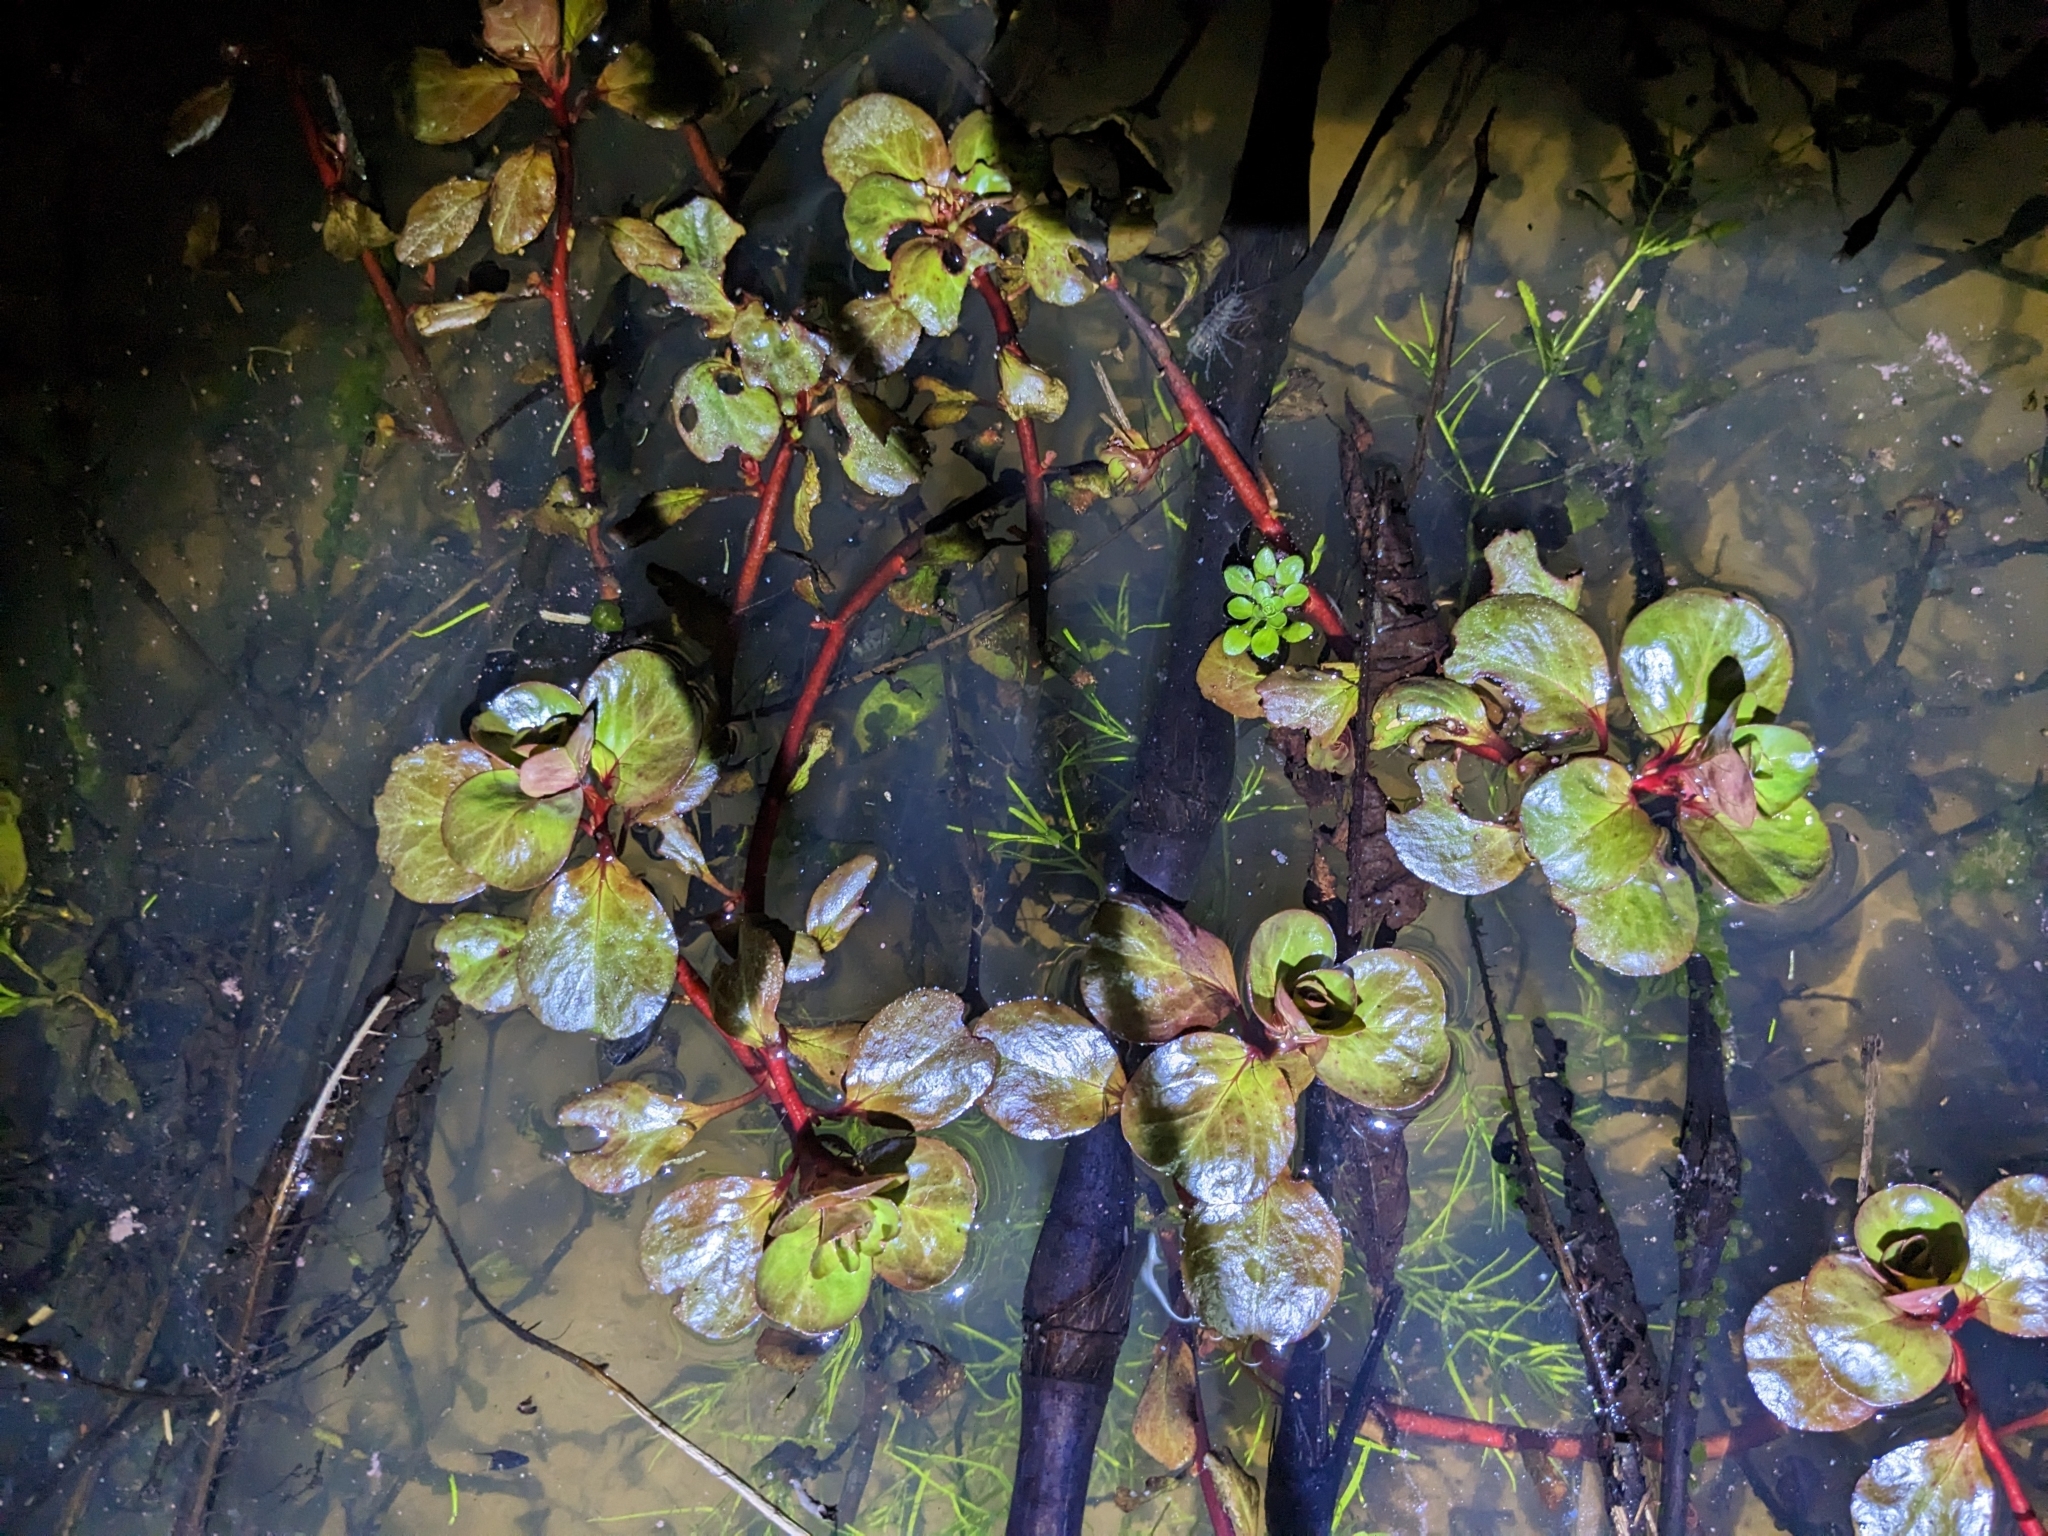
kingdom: Plantae
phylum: Tracheophyta
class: Magnoliopsida
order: Myrtales
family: Onagraceae
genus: Ludwigia
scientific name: Ludwigia peploides
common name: Floating primrose-willow
